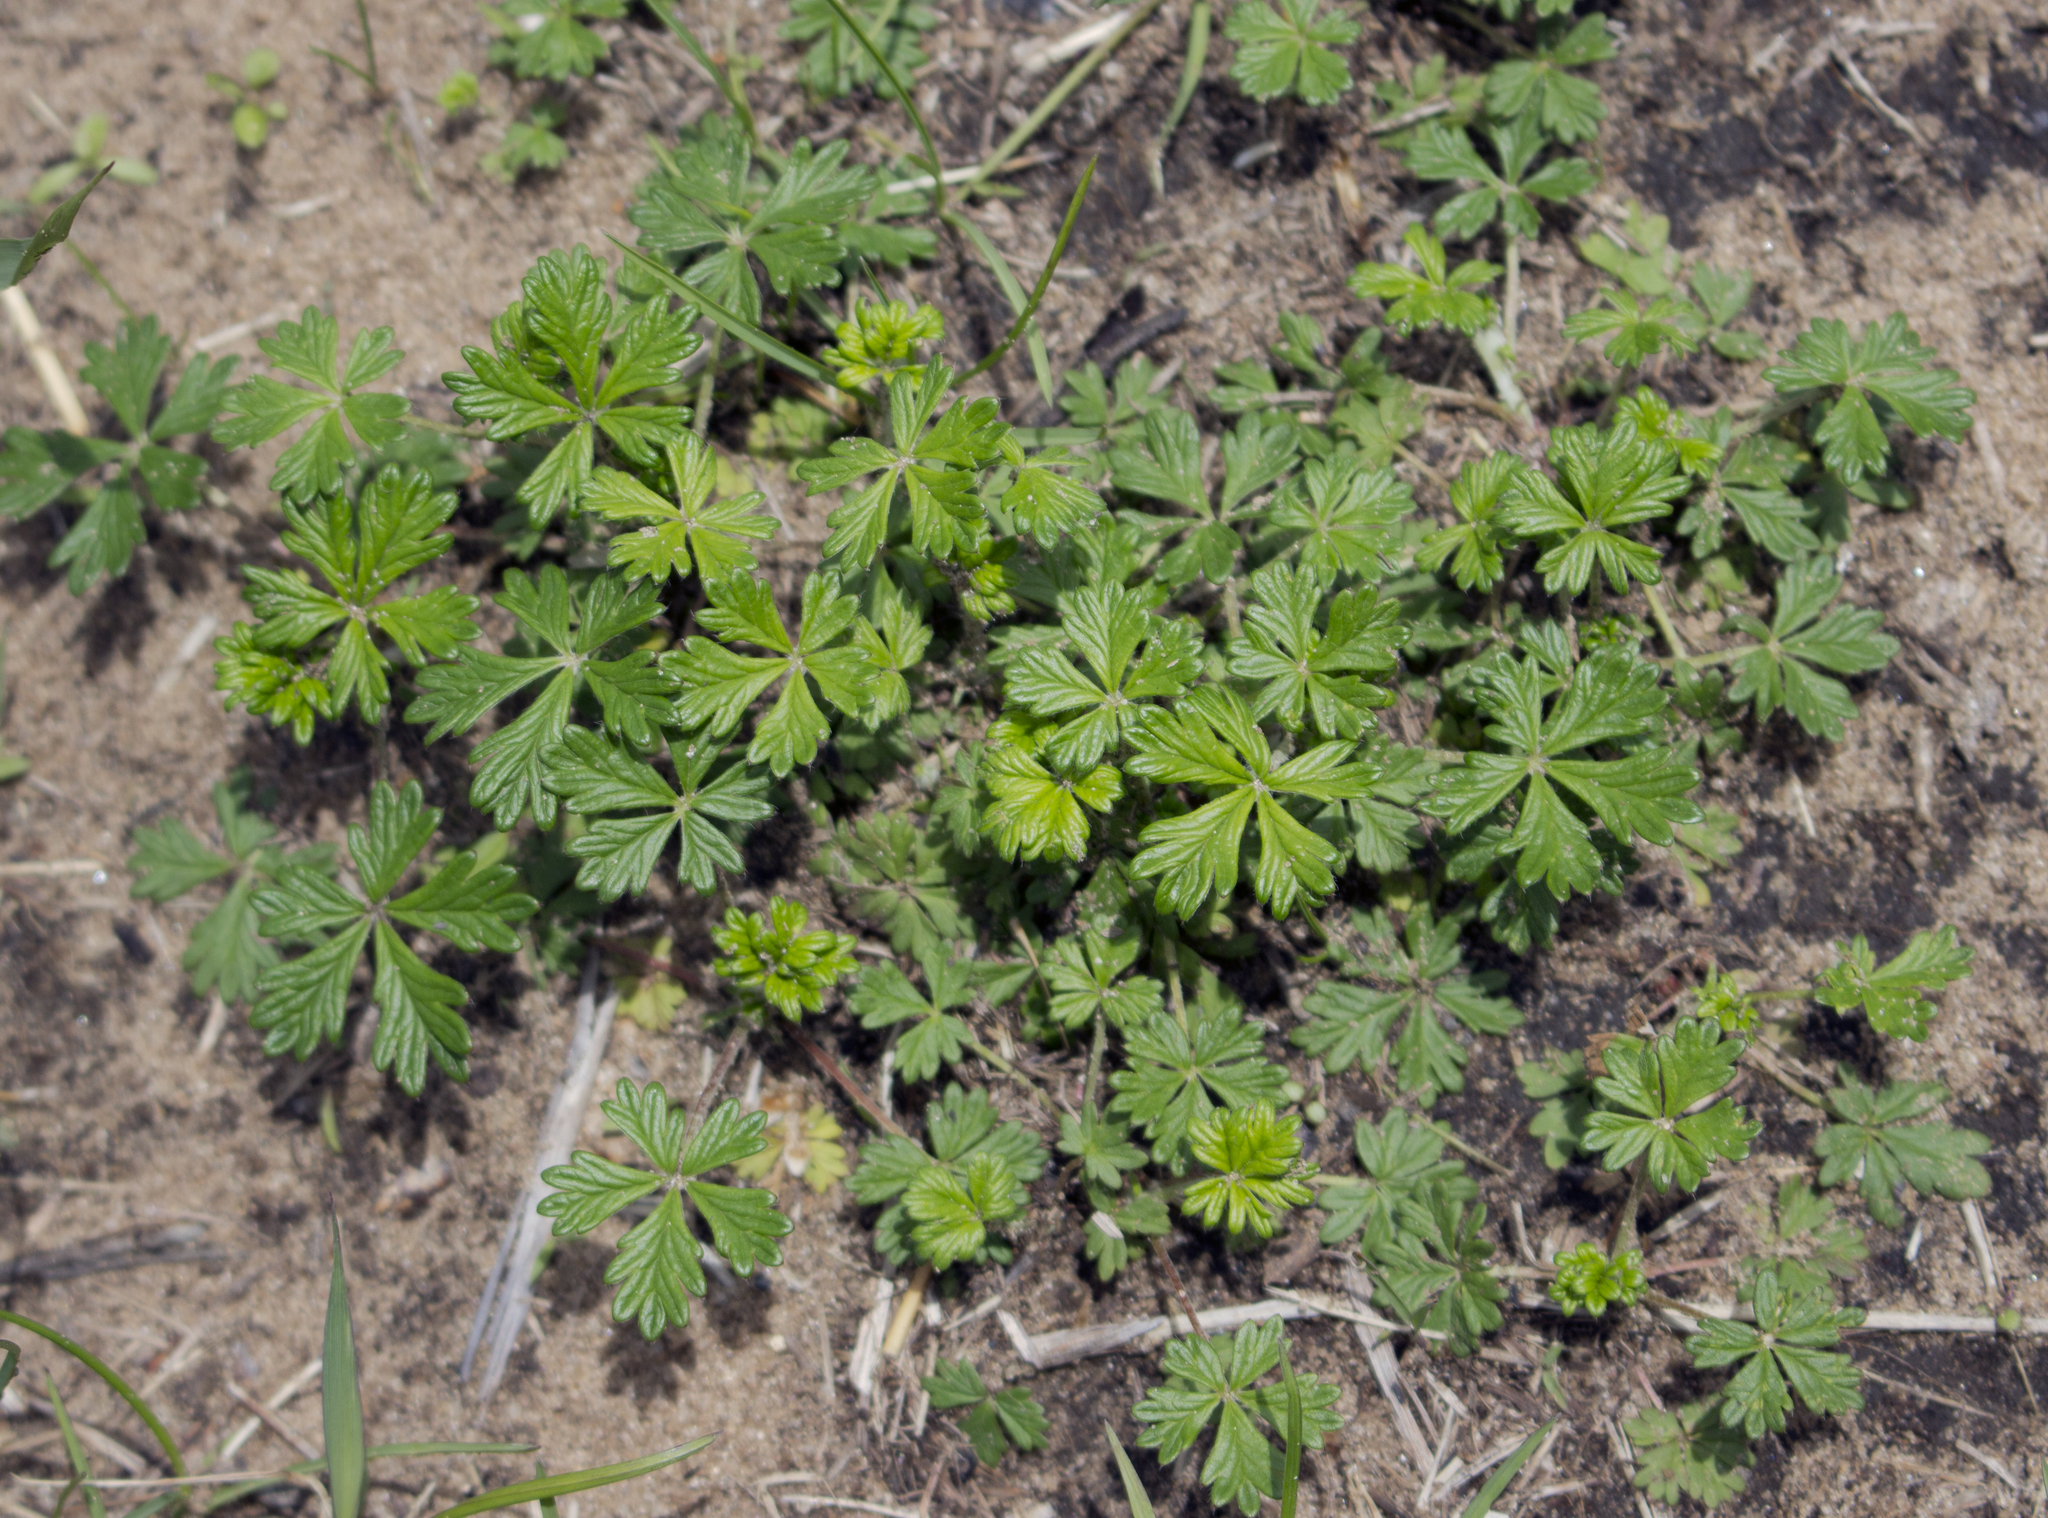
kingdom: Plantae
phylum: Tracheophyta
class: Magnoliopsida
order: Rosales
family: Rosaceae
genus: Potentilla
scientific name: Potentilla argentea
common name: Hoary cinquefoil
